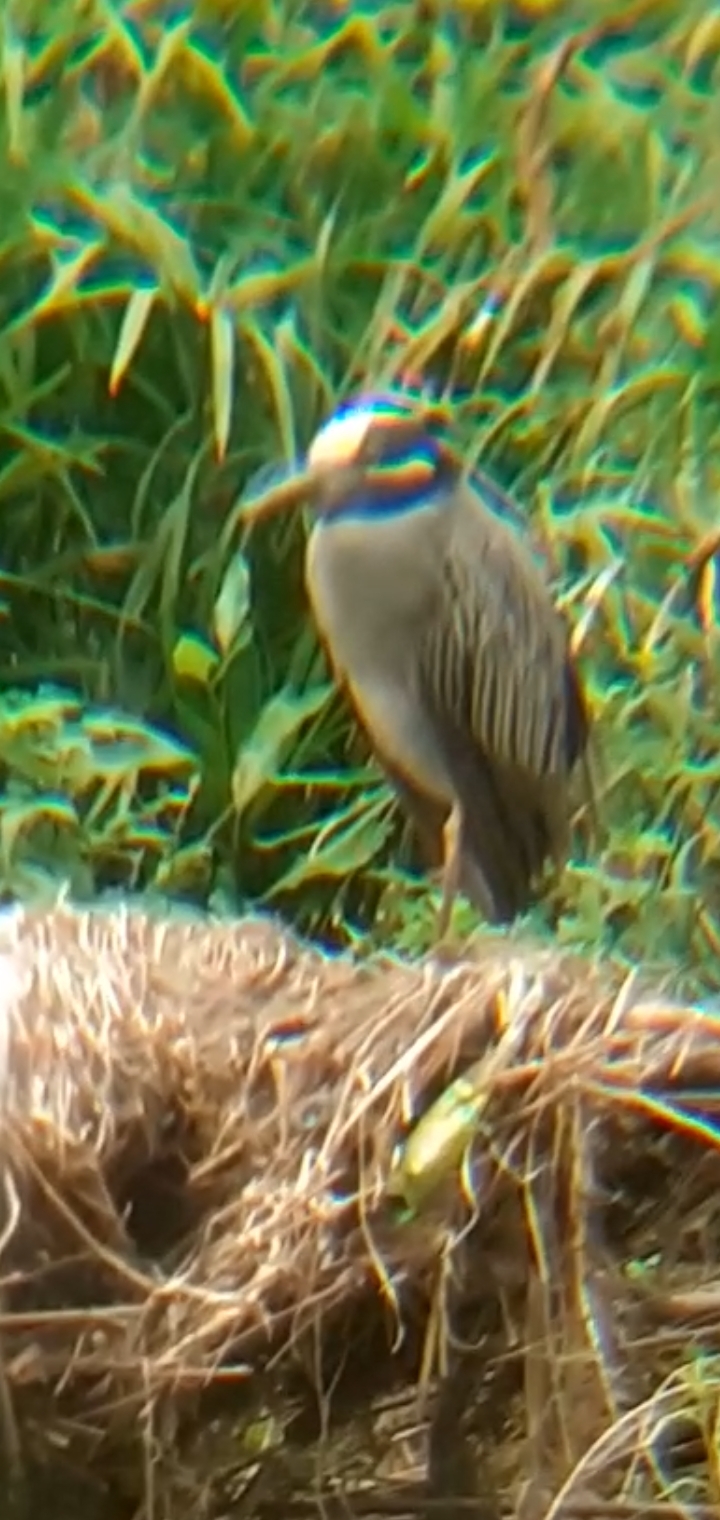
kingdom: Animalia
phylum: Chordata
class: Aves
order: Pelecaniformes
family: Ardeidae
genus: Nyctanassa
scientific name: Nyctanassa violacea
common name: Yellow-crowned night heron
